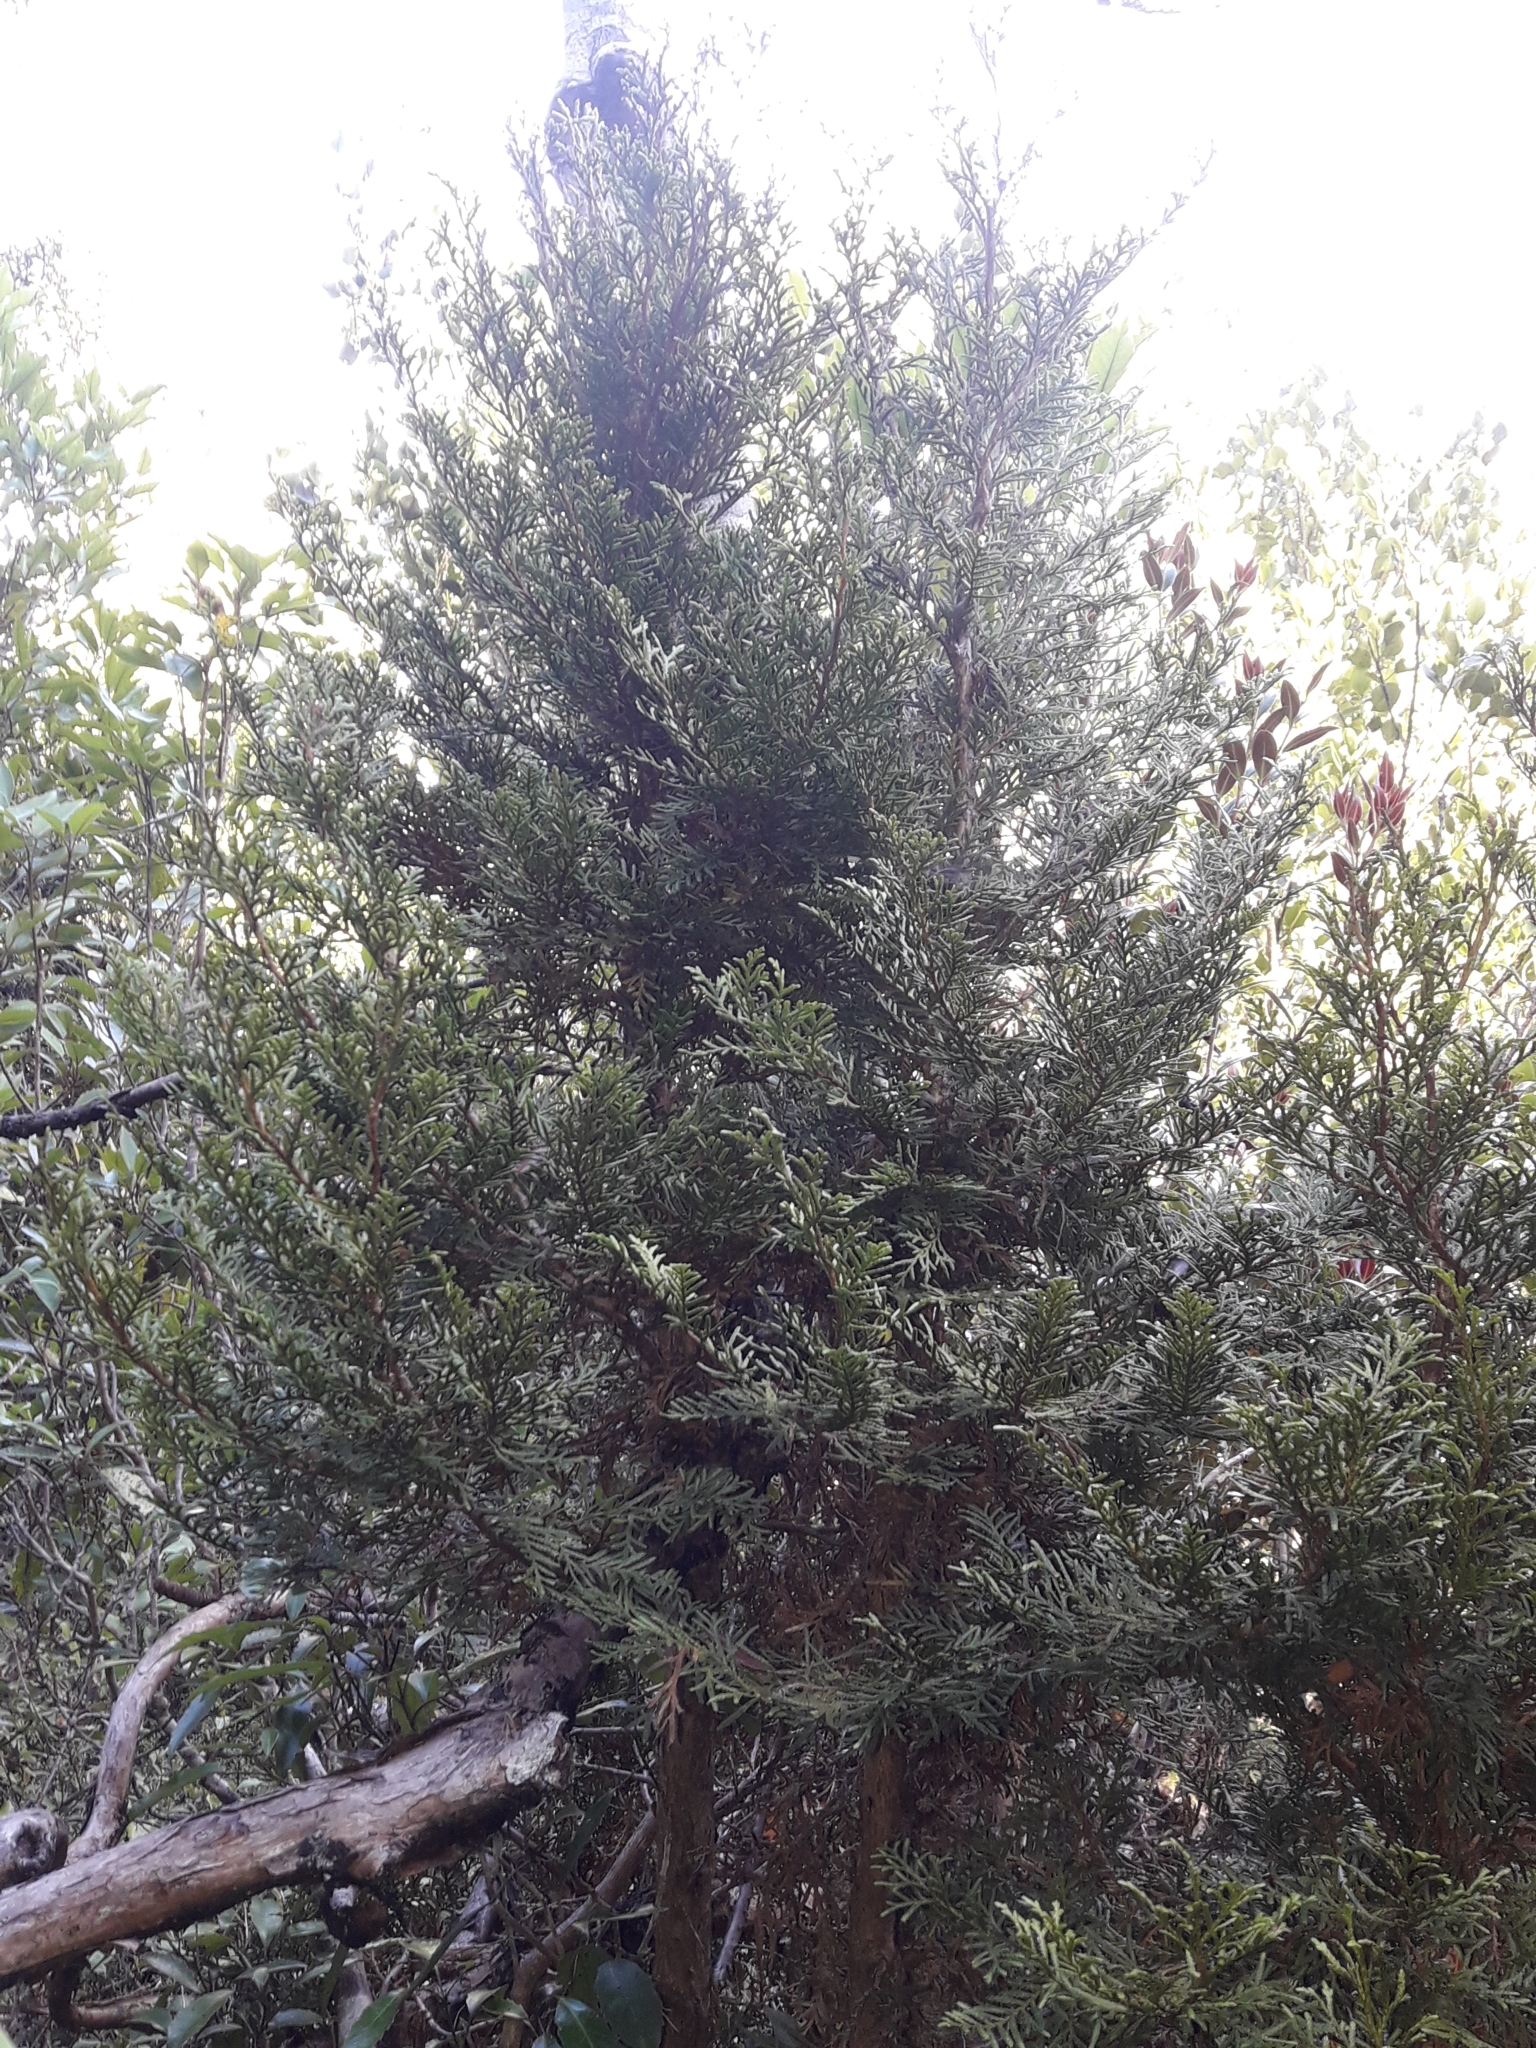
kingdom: Plantae
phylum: Tracheophyta
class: Pinopsida
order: Pinales
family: Cupressaceae
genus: Libocedrus
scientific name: Libocedrus bidwillii
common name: Cedar
